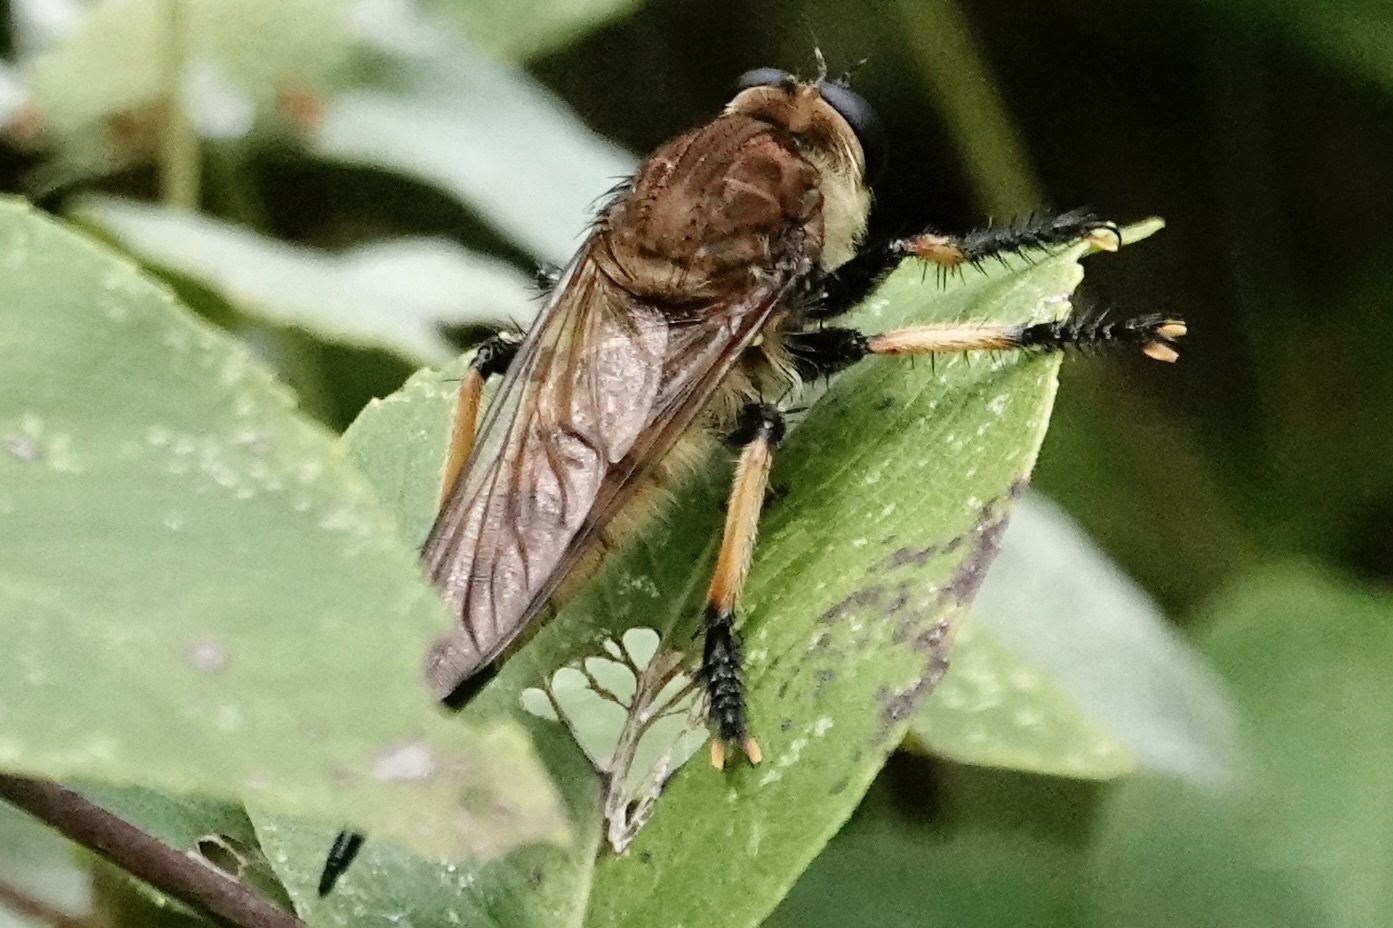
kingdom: Animalia
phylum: Arthropoda
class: Insecta
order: Diptera
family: Asilidae
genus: Promachus
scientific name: Promachus rufipes
